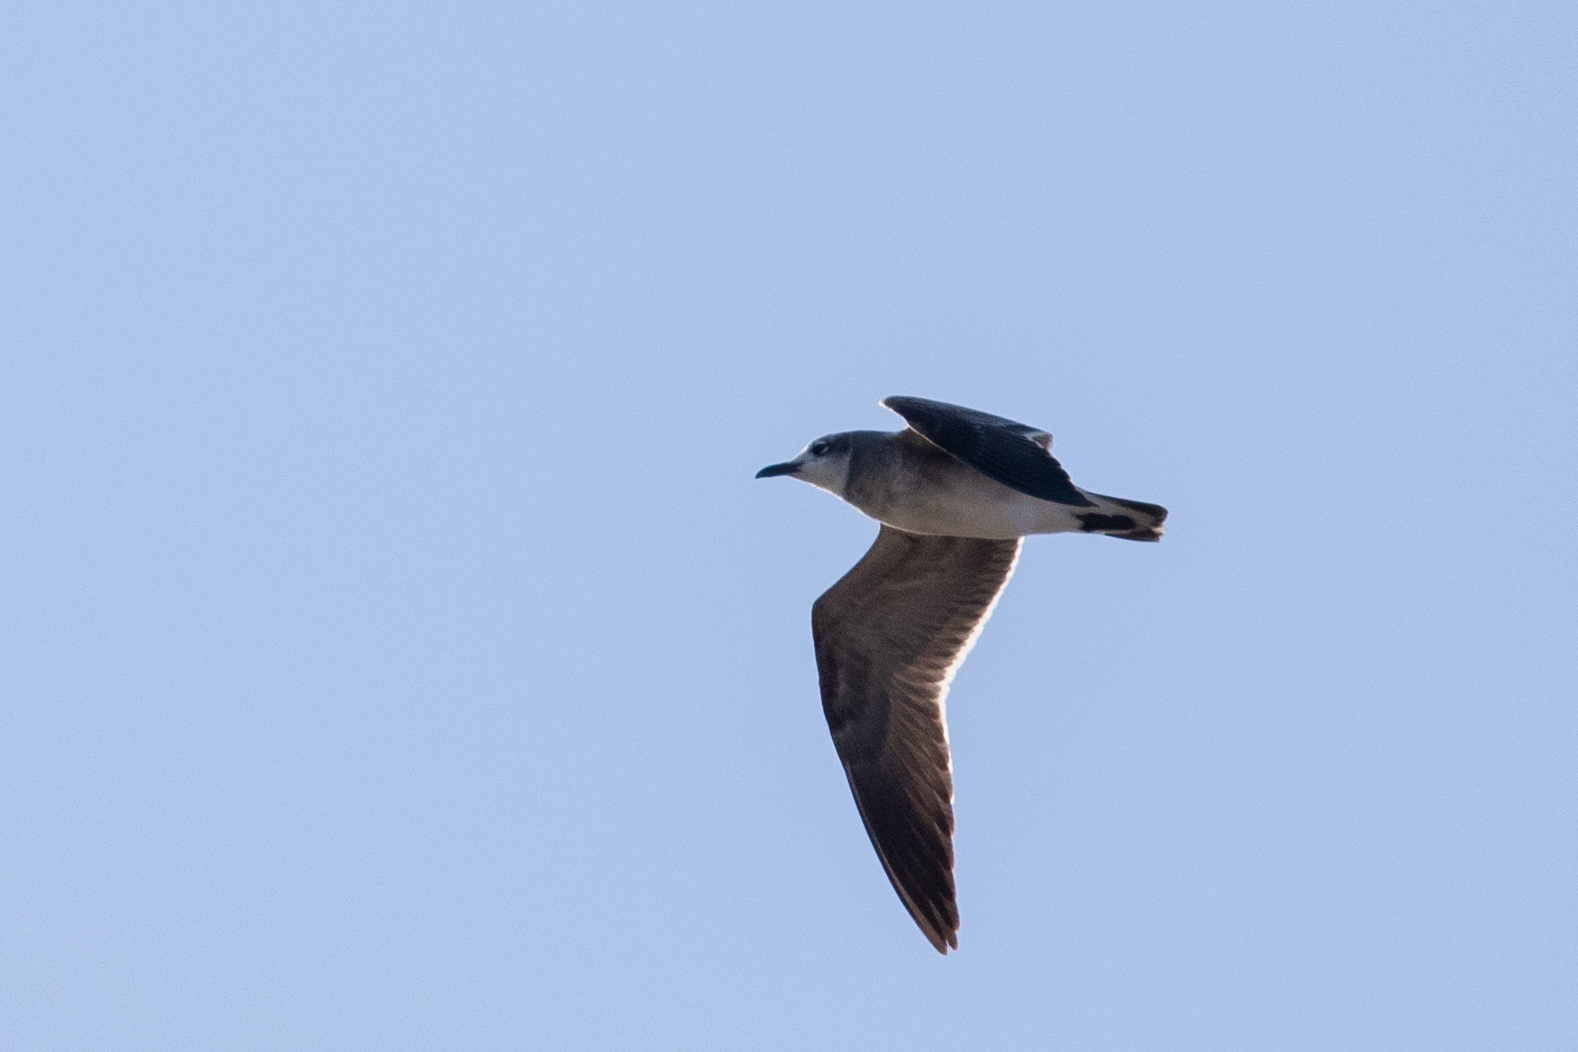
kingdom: Animalia
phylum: Chordata
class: Aves
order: Charadriiformes
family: Laridae
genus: Leucophaeus
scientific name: Leucophaeus atricilla
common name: Laughing gull
